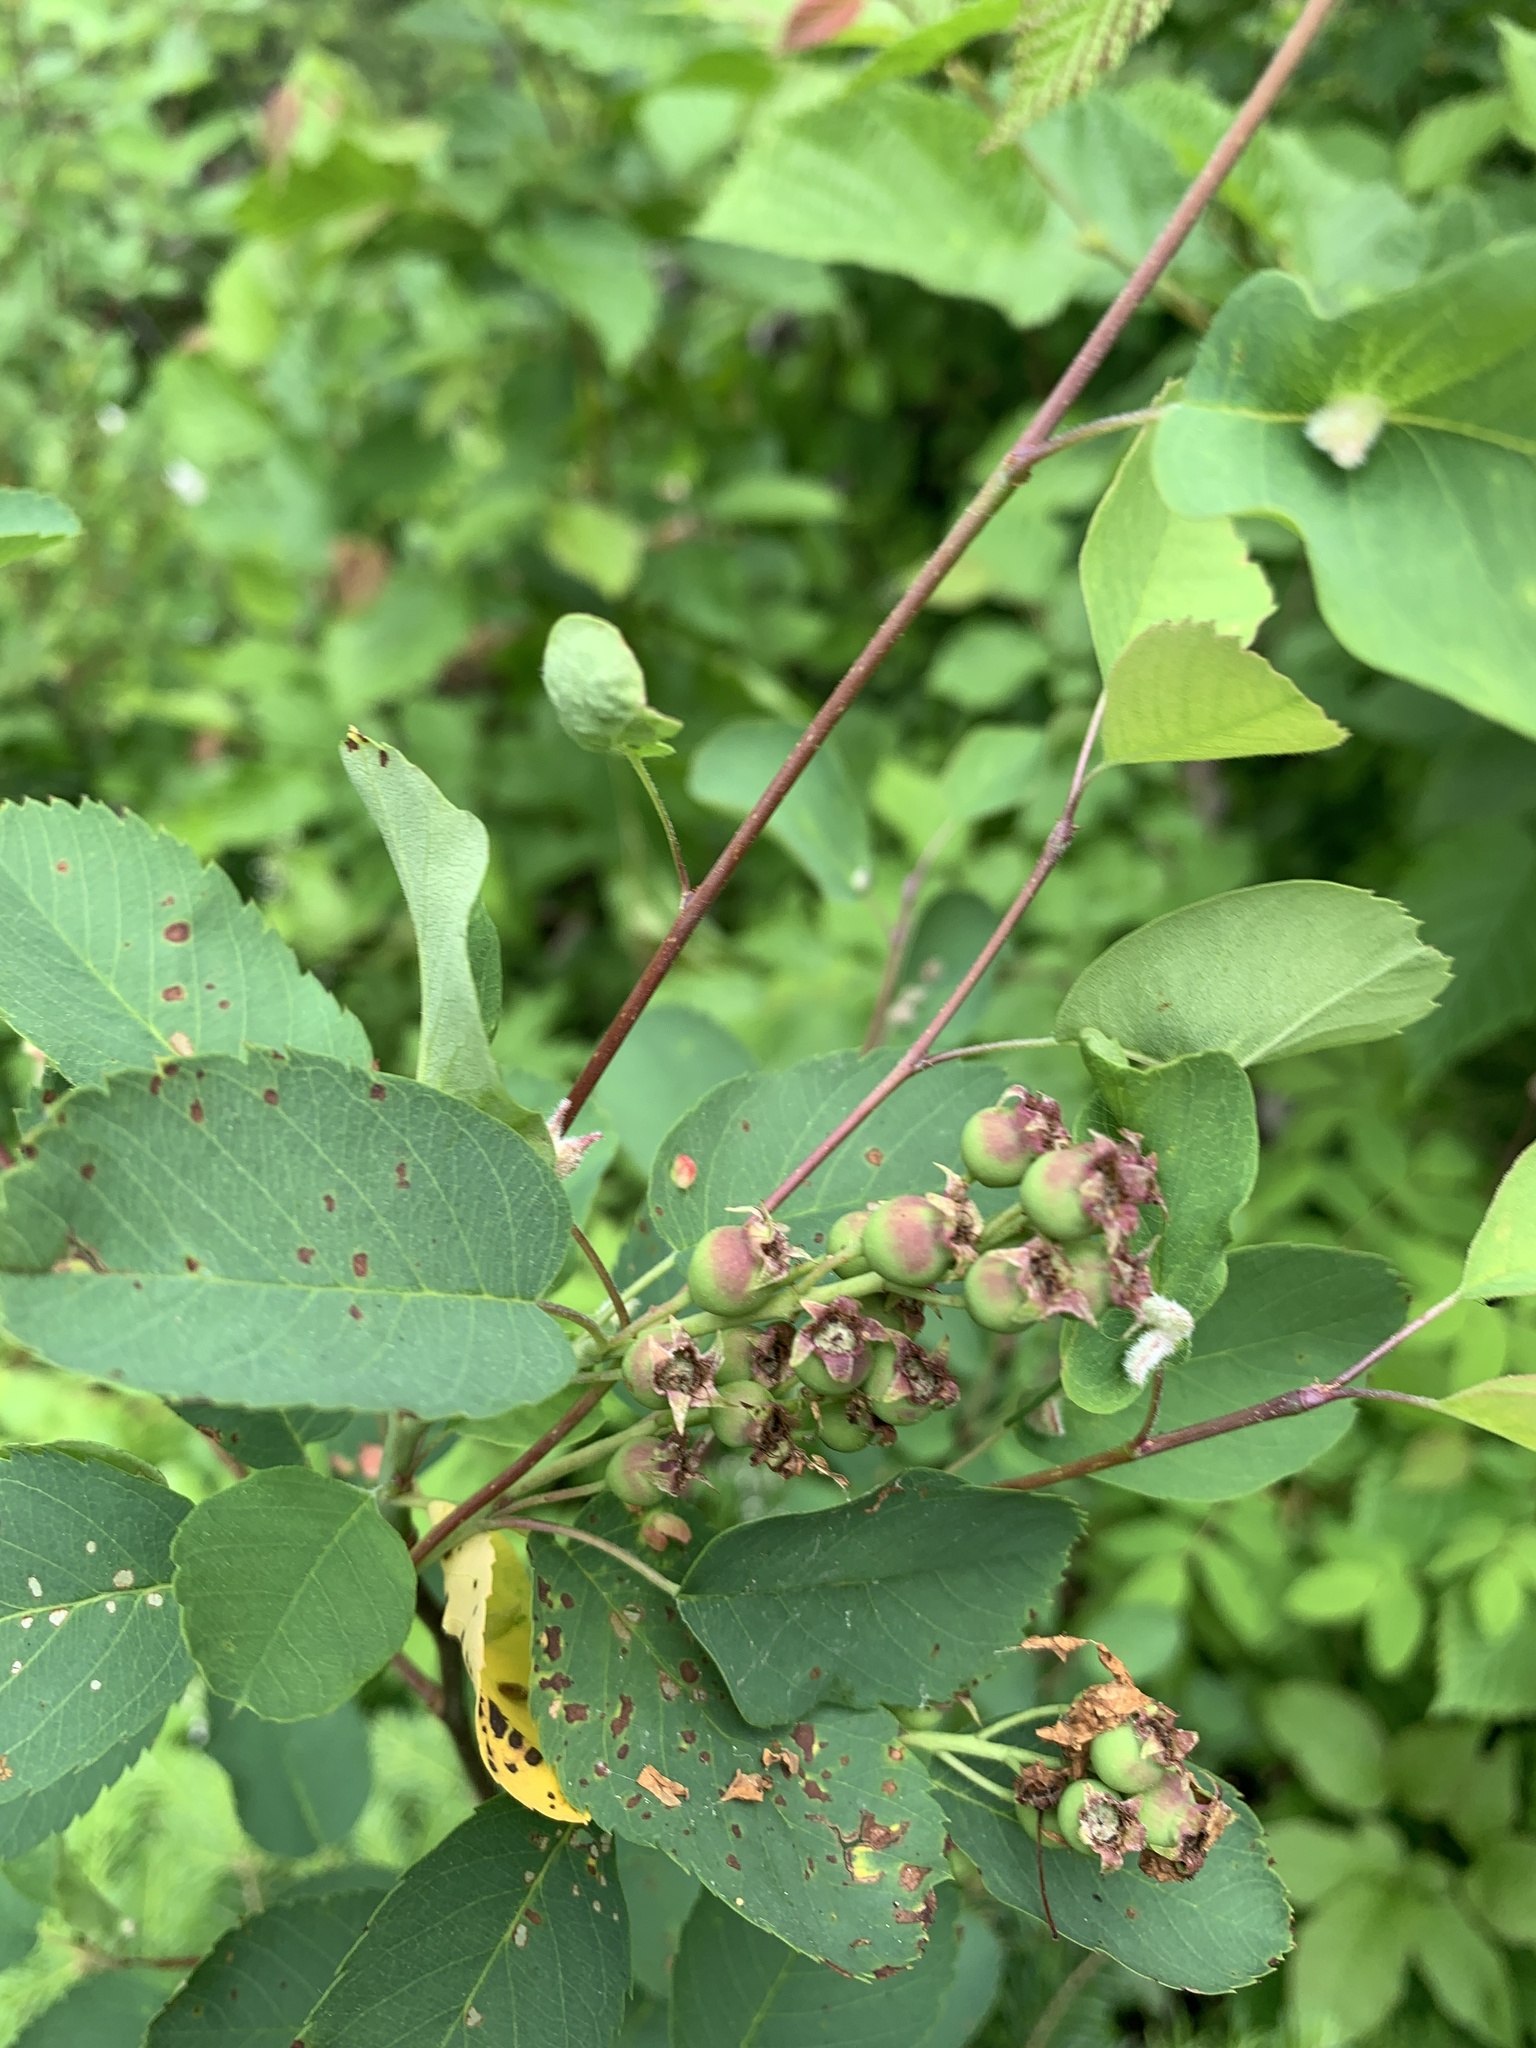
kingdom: Plantae
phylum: Tracheophyta
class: Magnoliopsida
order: Rosales
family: Rosaceae
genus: Amelanchier
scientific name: Amelanchier alnifolia
